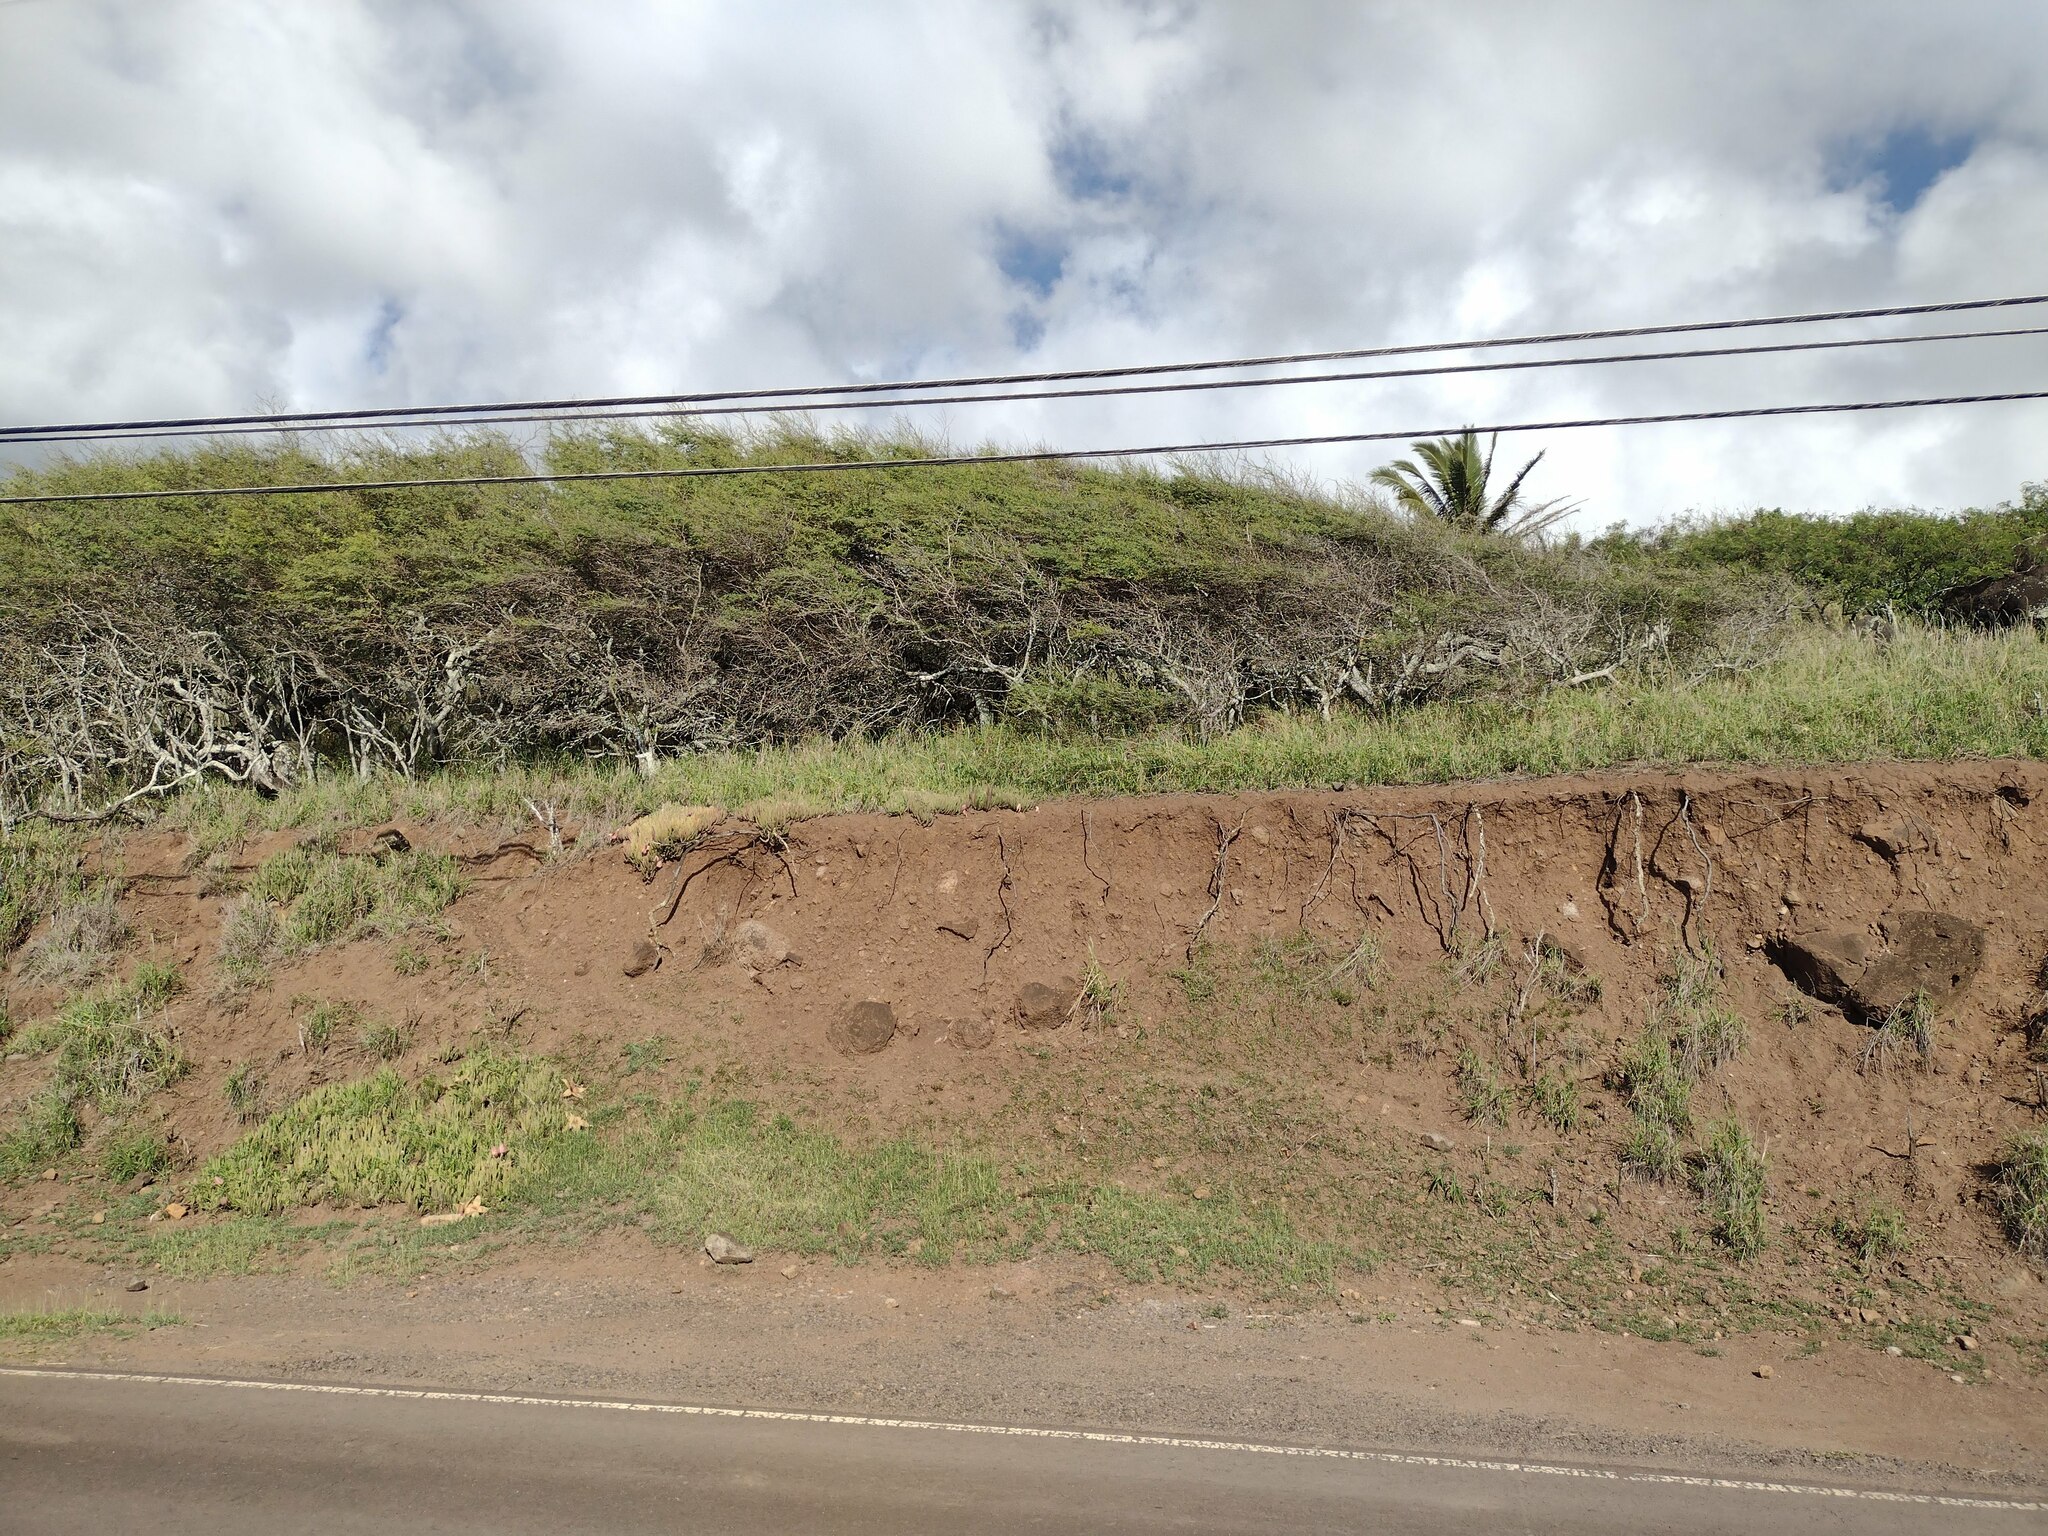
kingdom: Plantae
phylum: Tracheophyta
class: Magnoliopsida
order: Fabales
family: Fabaceae
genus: Prosopis
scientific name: Prosopis pallida
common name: Mesquite
